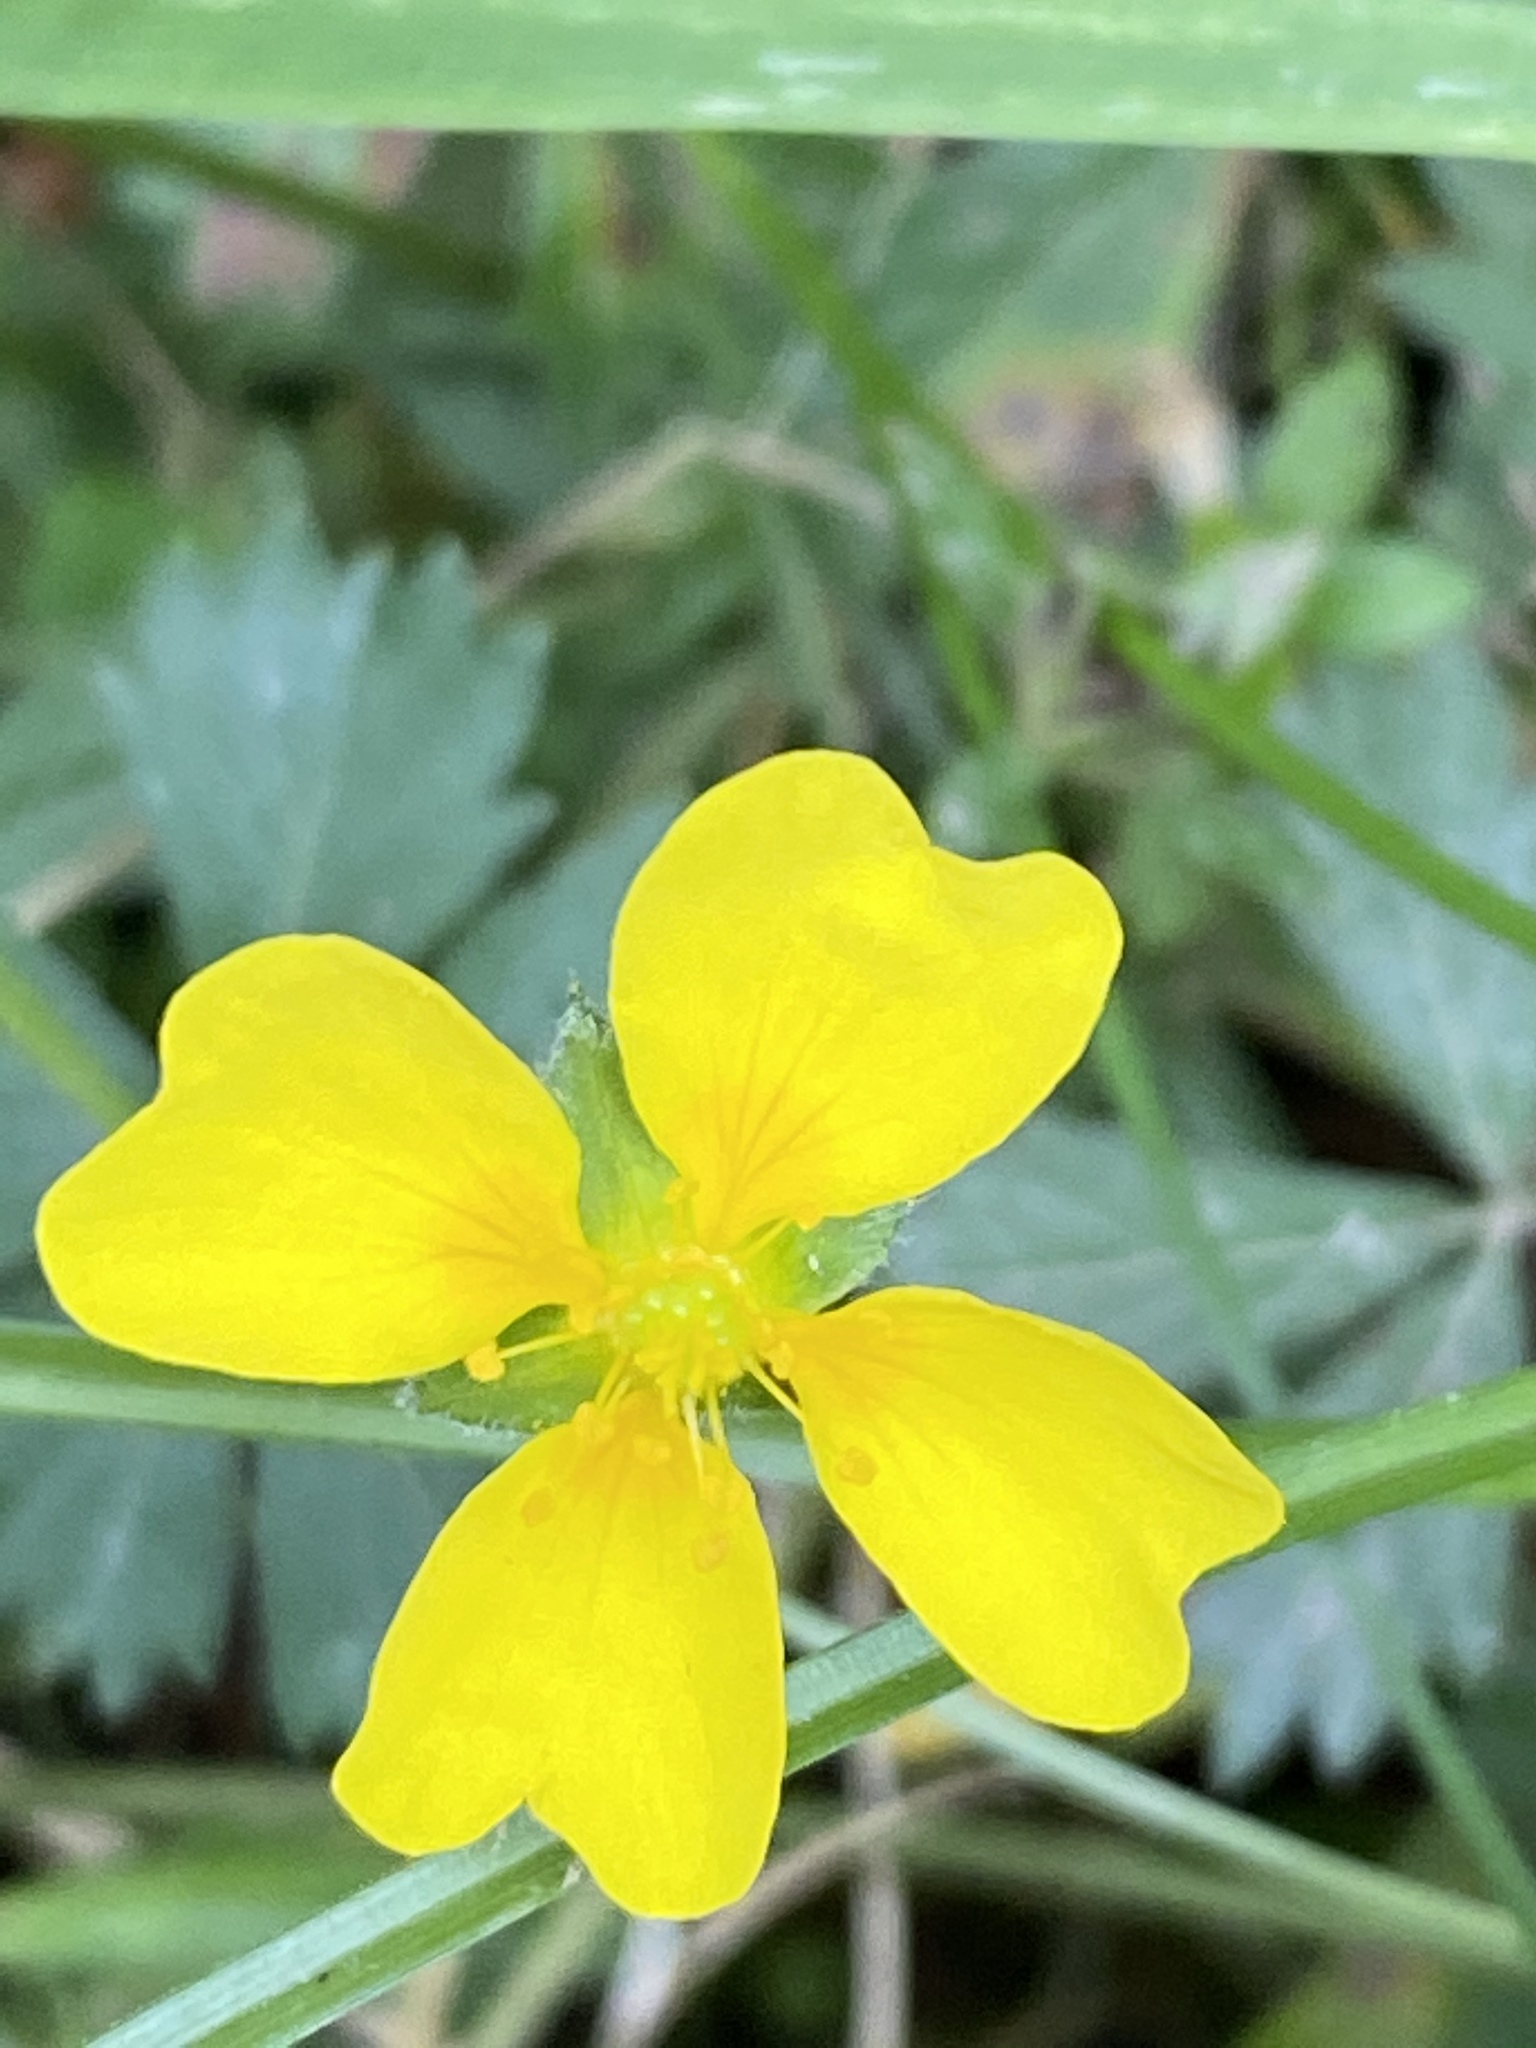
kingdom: Plantae
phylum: Tracheophyta
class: Magnoliopsida
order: Rosales
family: Rosaceae
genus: Potentilla
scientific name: Potentilla erecta
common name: Tormentil
